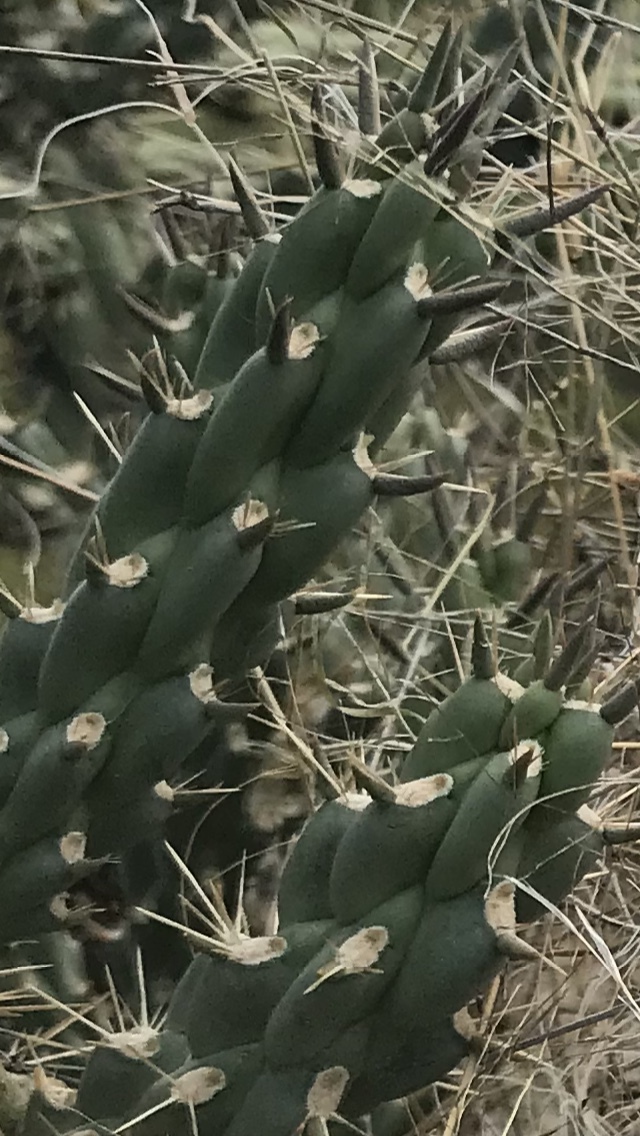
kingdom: Plantae
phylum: Tracheophyta
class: Magnoliopsida
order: Caryophyllales
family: Cactaceae
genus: Cylindropuntia
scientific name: Cylindropuntia imbricata
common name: Candelabrum cactus
